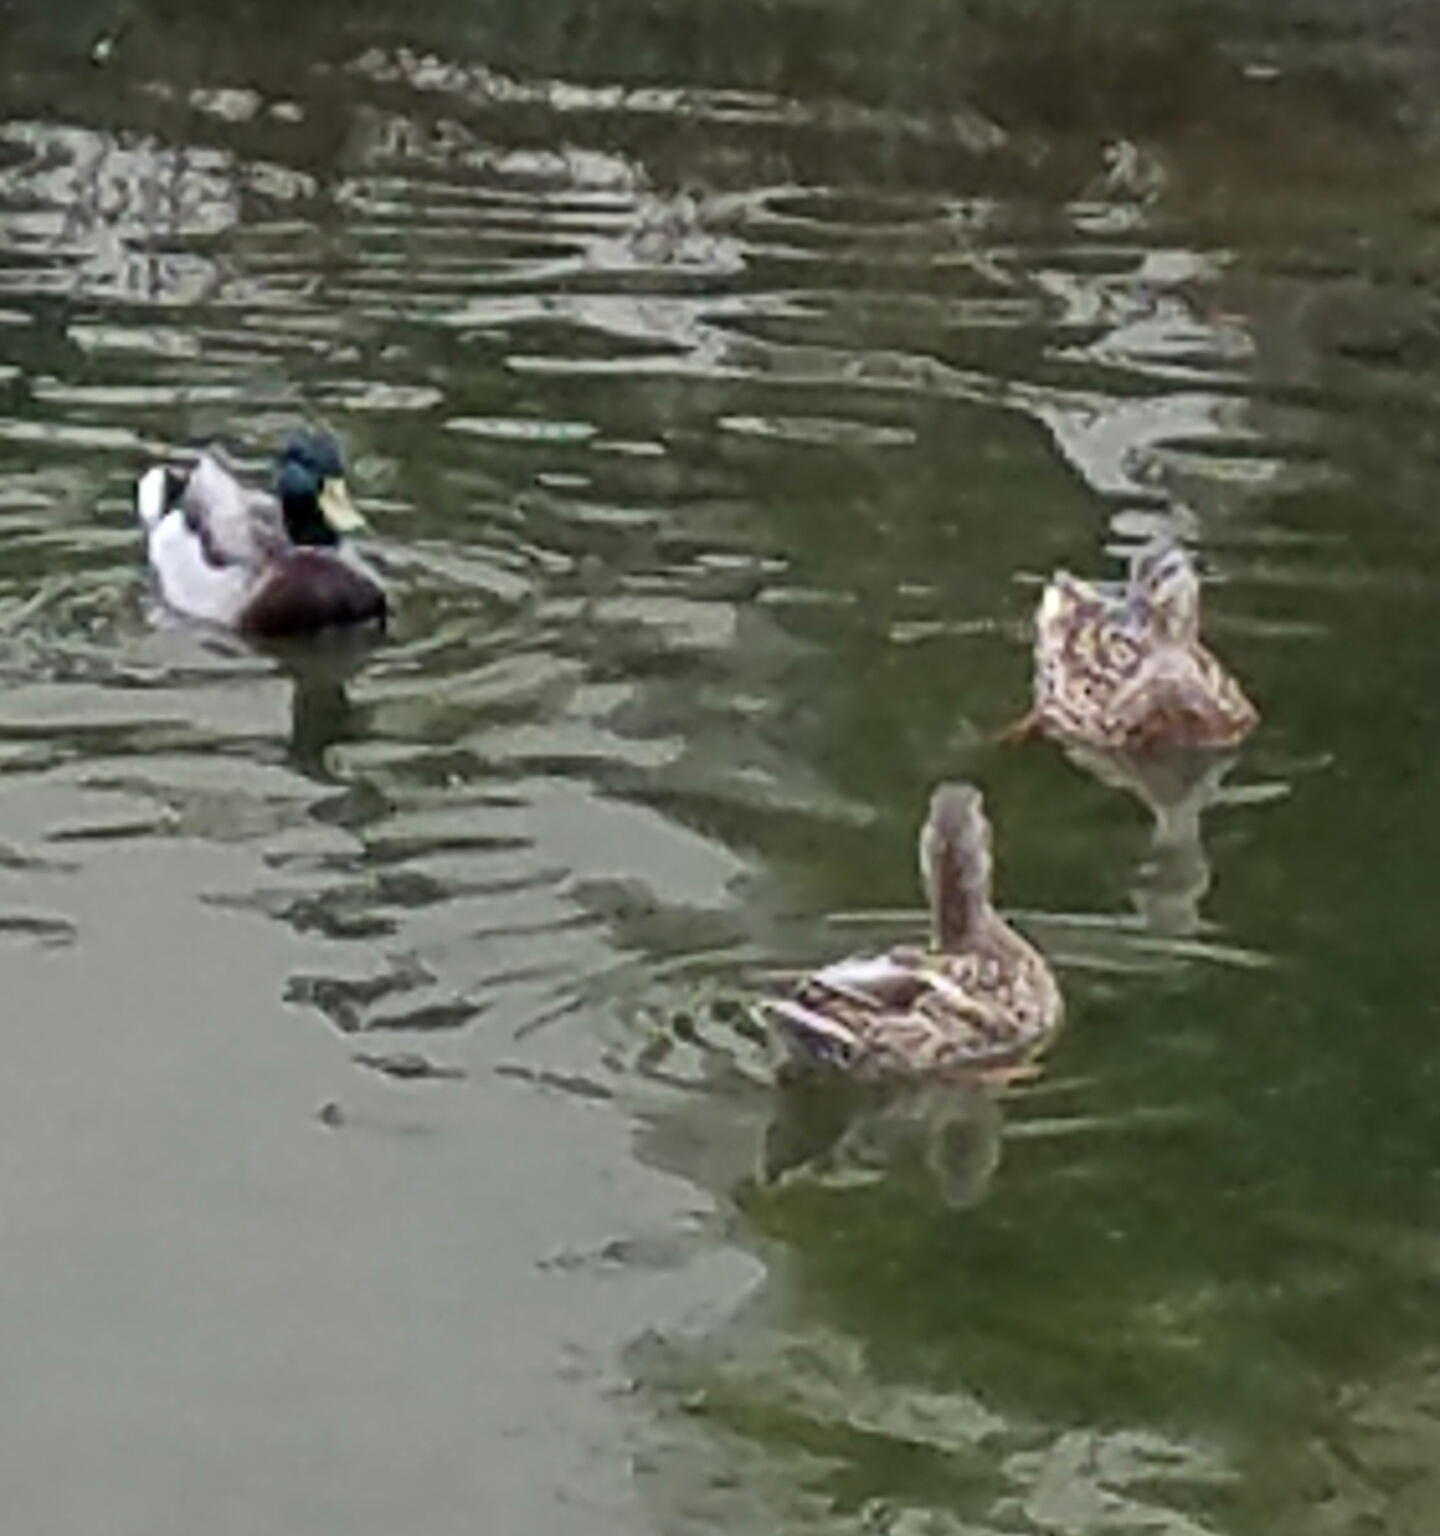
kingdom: Animalia
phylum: Chordata
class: Aves
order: Anseriformes
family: Anatidae
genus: Anas
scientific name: Anas platyrhynchos
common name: Mallard
